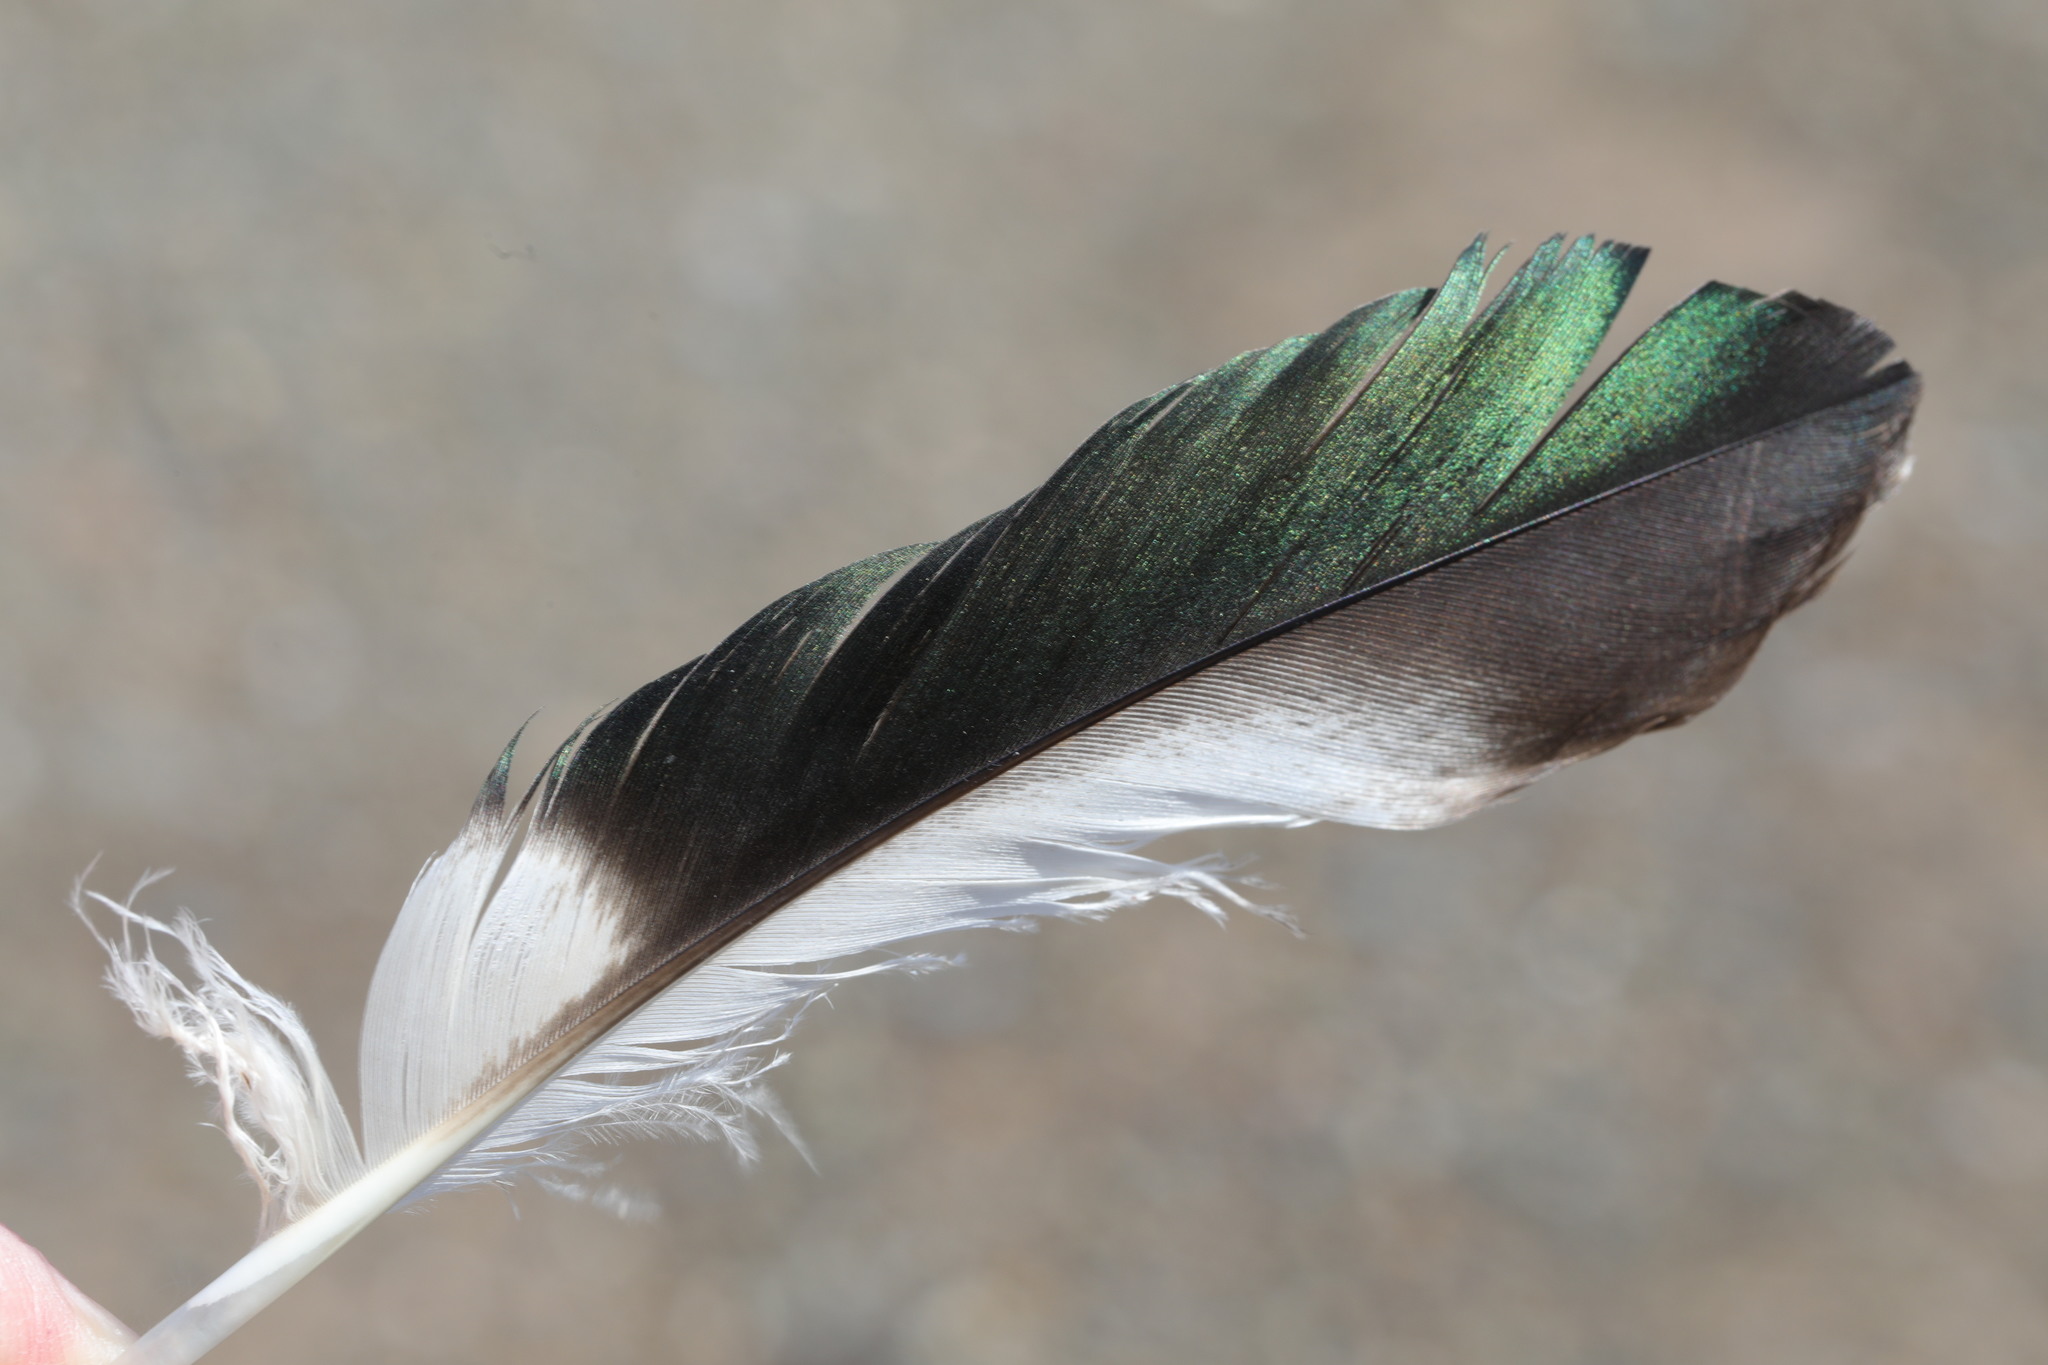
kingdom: Animalia
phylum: Chordata
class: Aves
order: Charadriiformes
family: Charadriidae
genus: Vanellus
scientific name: Vanellus vanellus
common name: Northern lapwing
